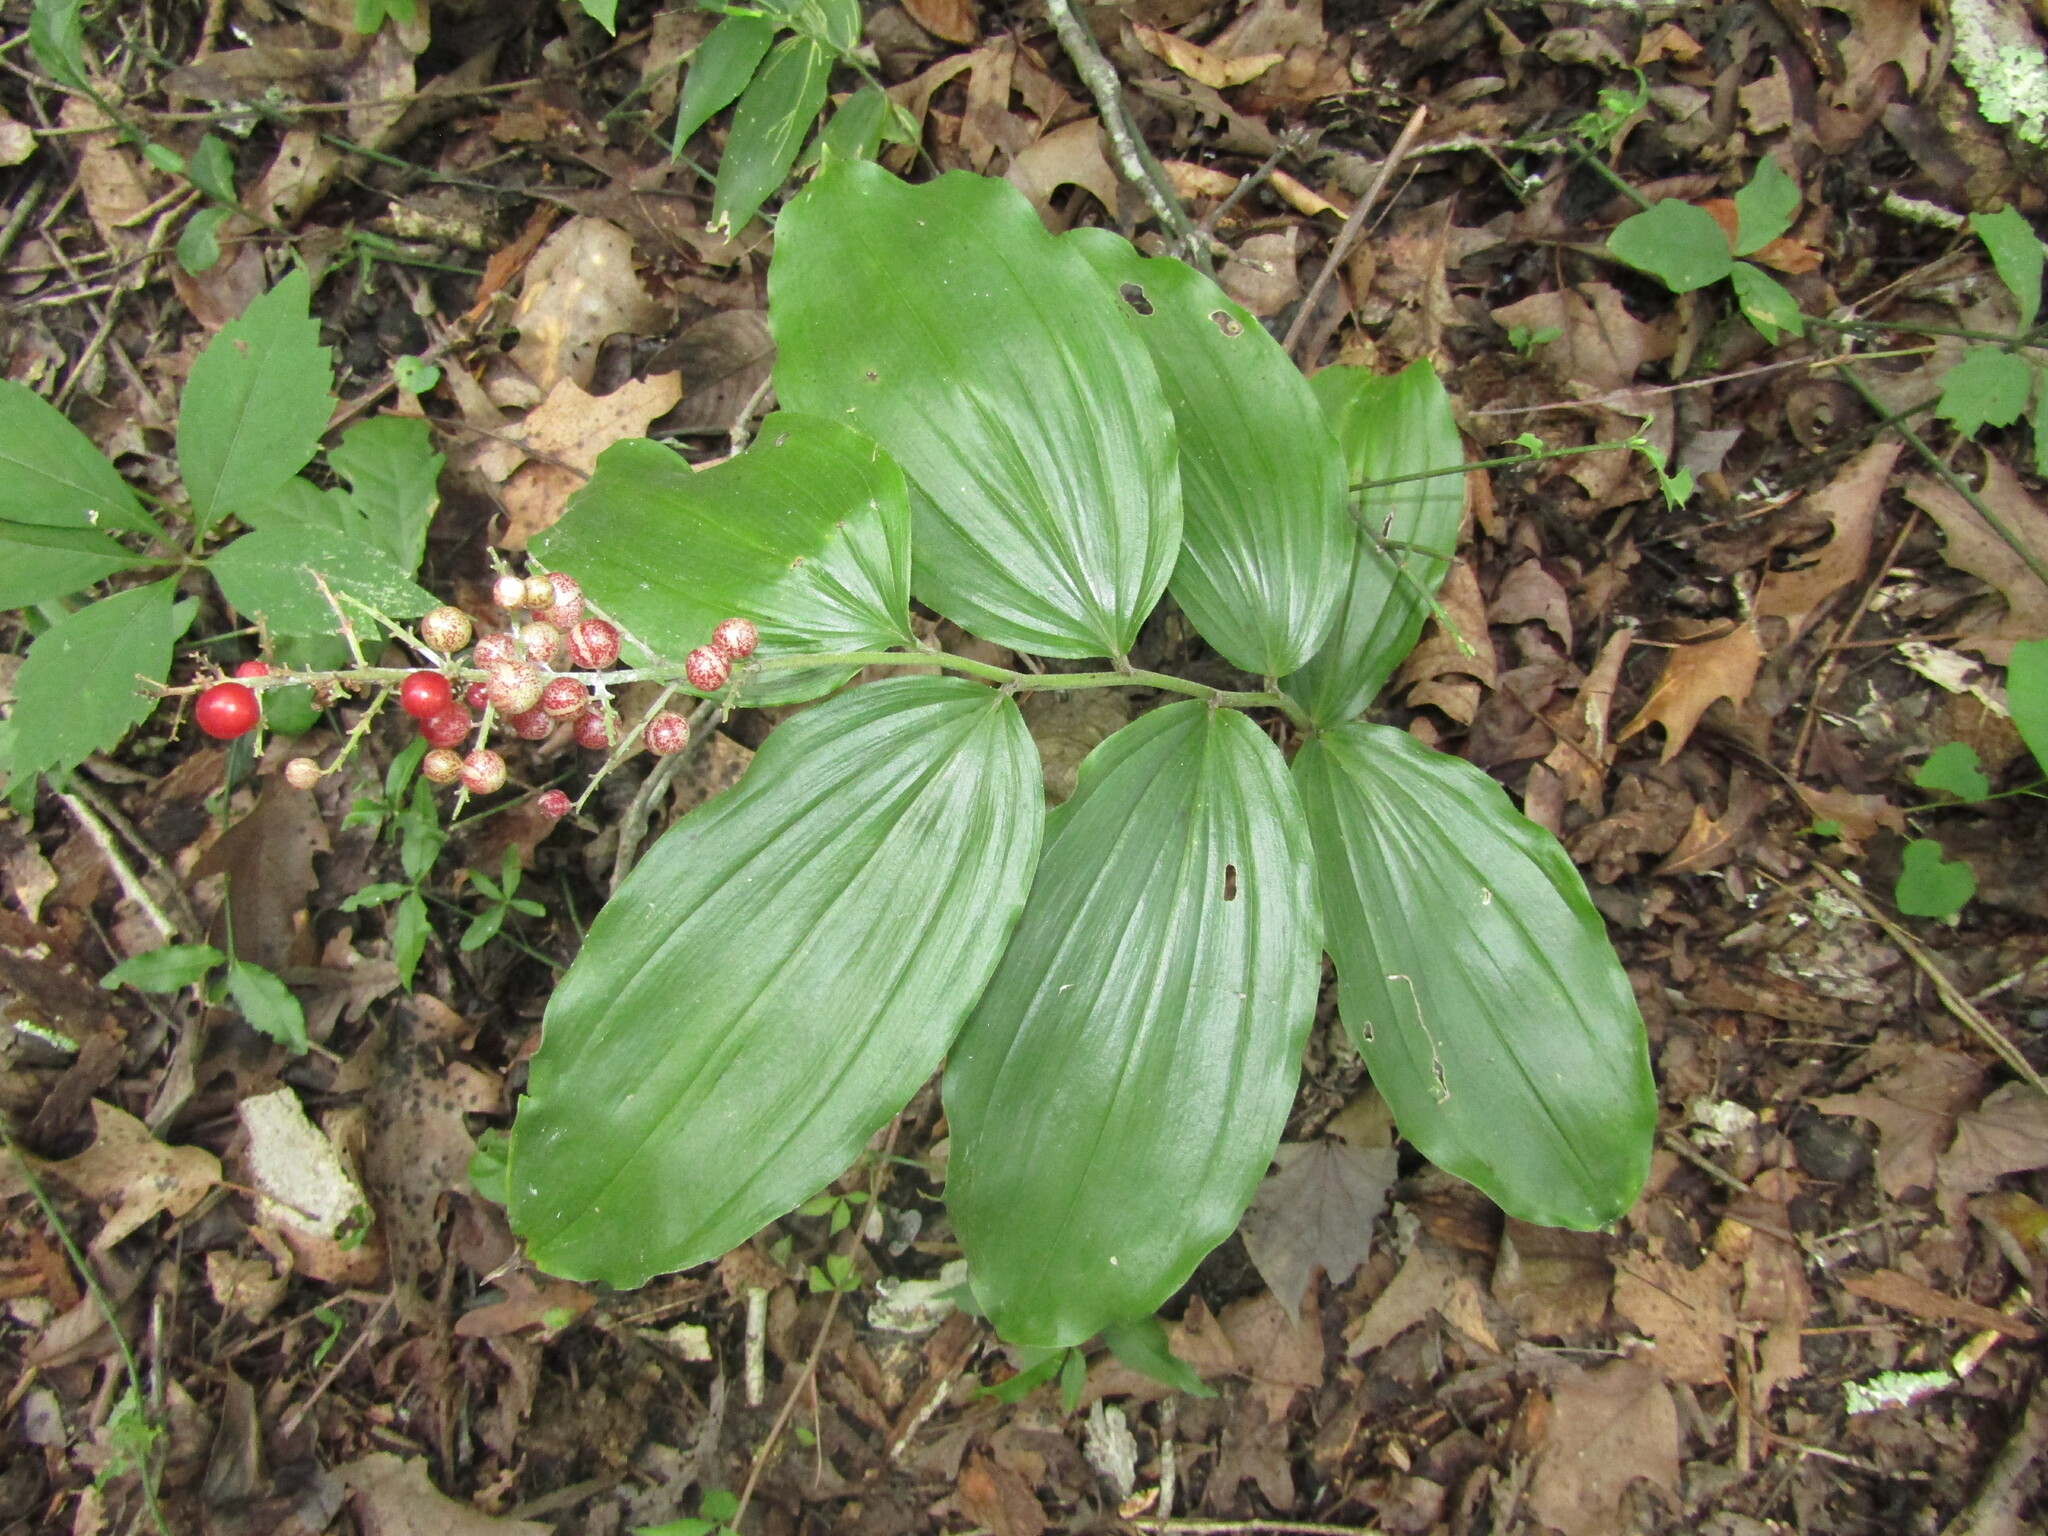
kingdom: Plantae
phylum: Tracheophyta
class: Liliopsida
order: Asparagales
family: Asparagaceae
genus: Maianthemum
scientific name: Maianthemum racemosum
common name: False spikenard
